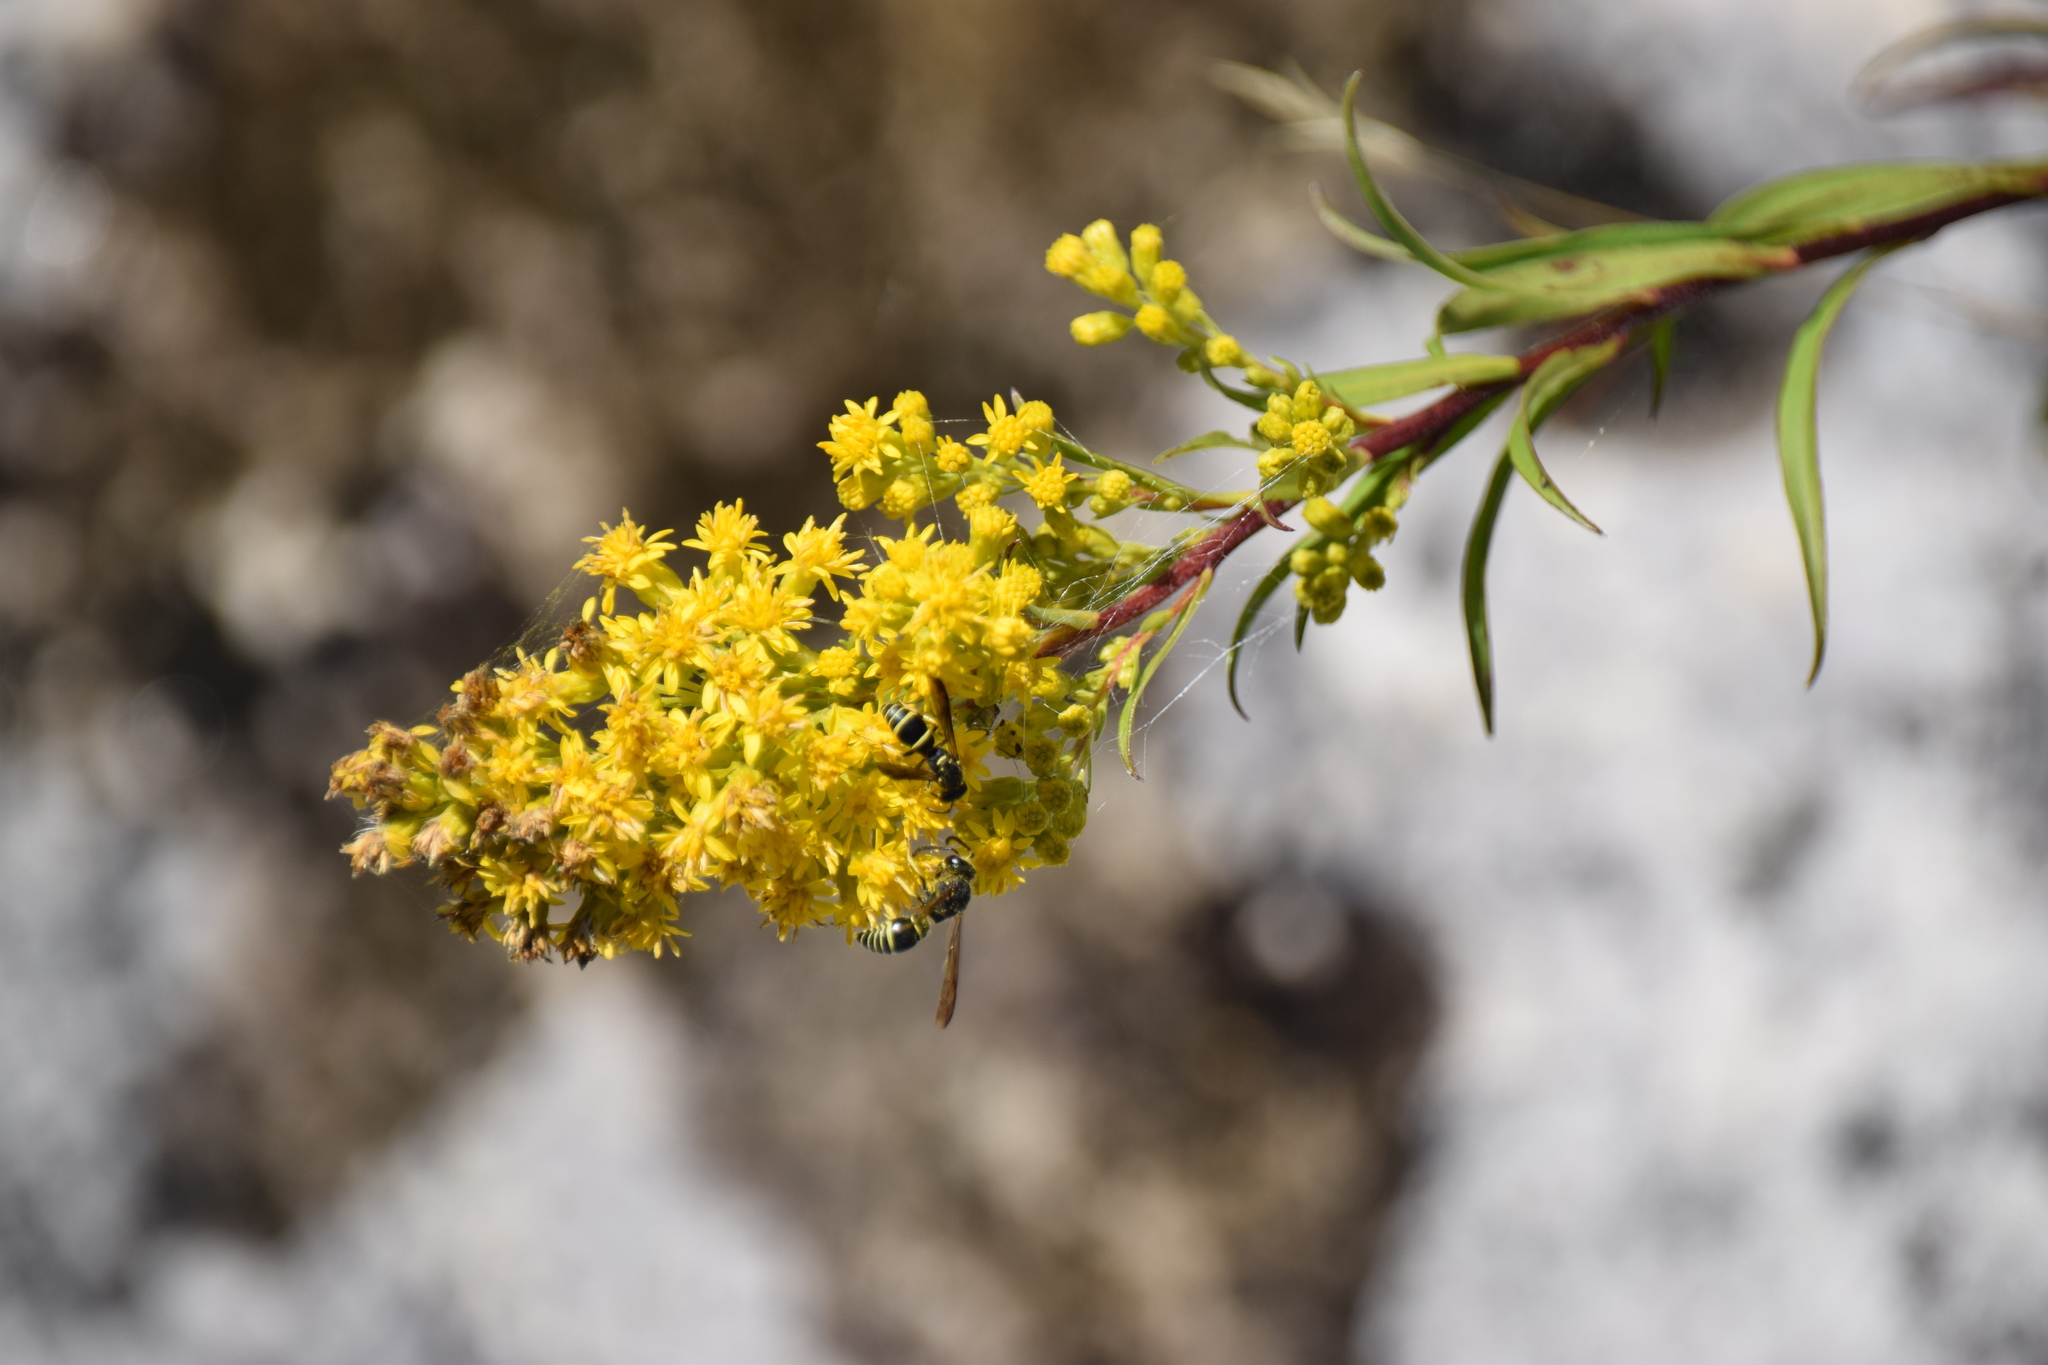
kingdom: Plantae
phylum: Tracheophyta
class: Magnoliopsida
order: Asterales
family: Asteraceae
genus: Solidago
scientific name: Solidago juncea
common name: Early goldenrod
